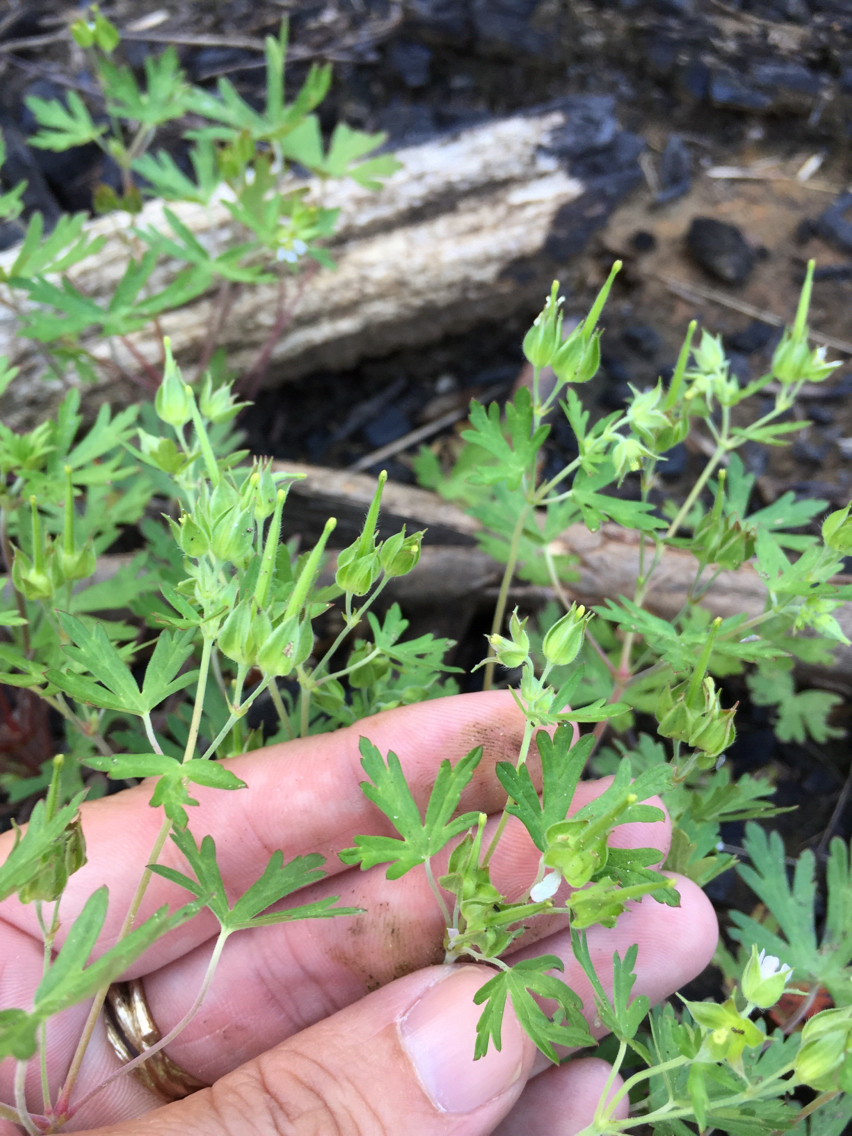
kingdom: Plantae
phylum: Tracheophyta
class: Magnoliopsida
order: Geraniales
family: Geraniaceae
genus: Geranium
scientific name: Geranium carolinianum
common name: Carolina crane's-bill
